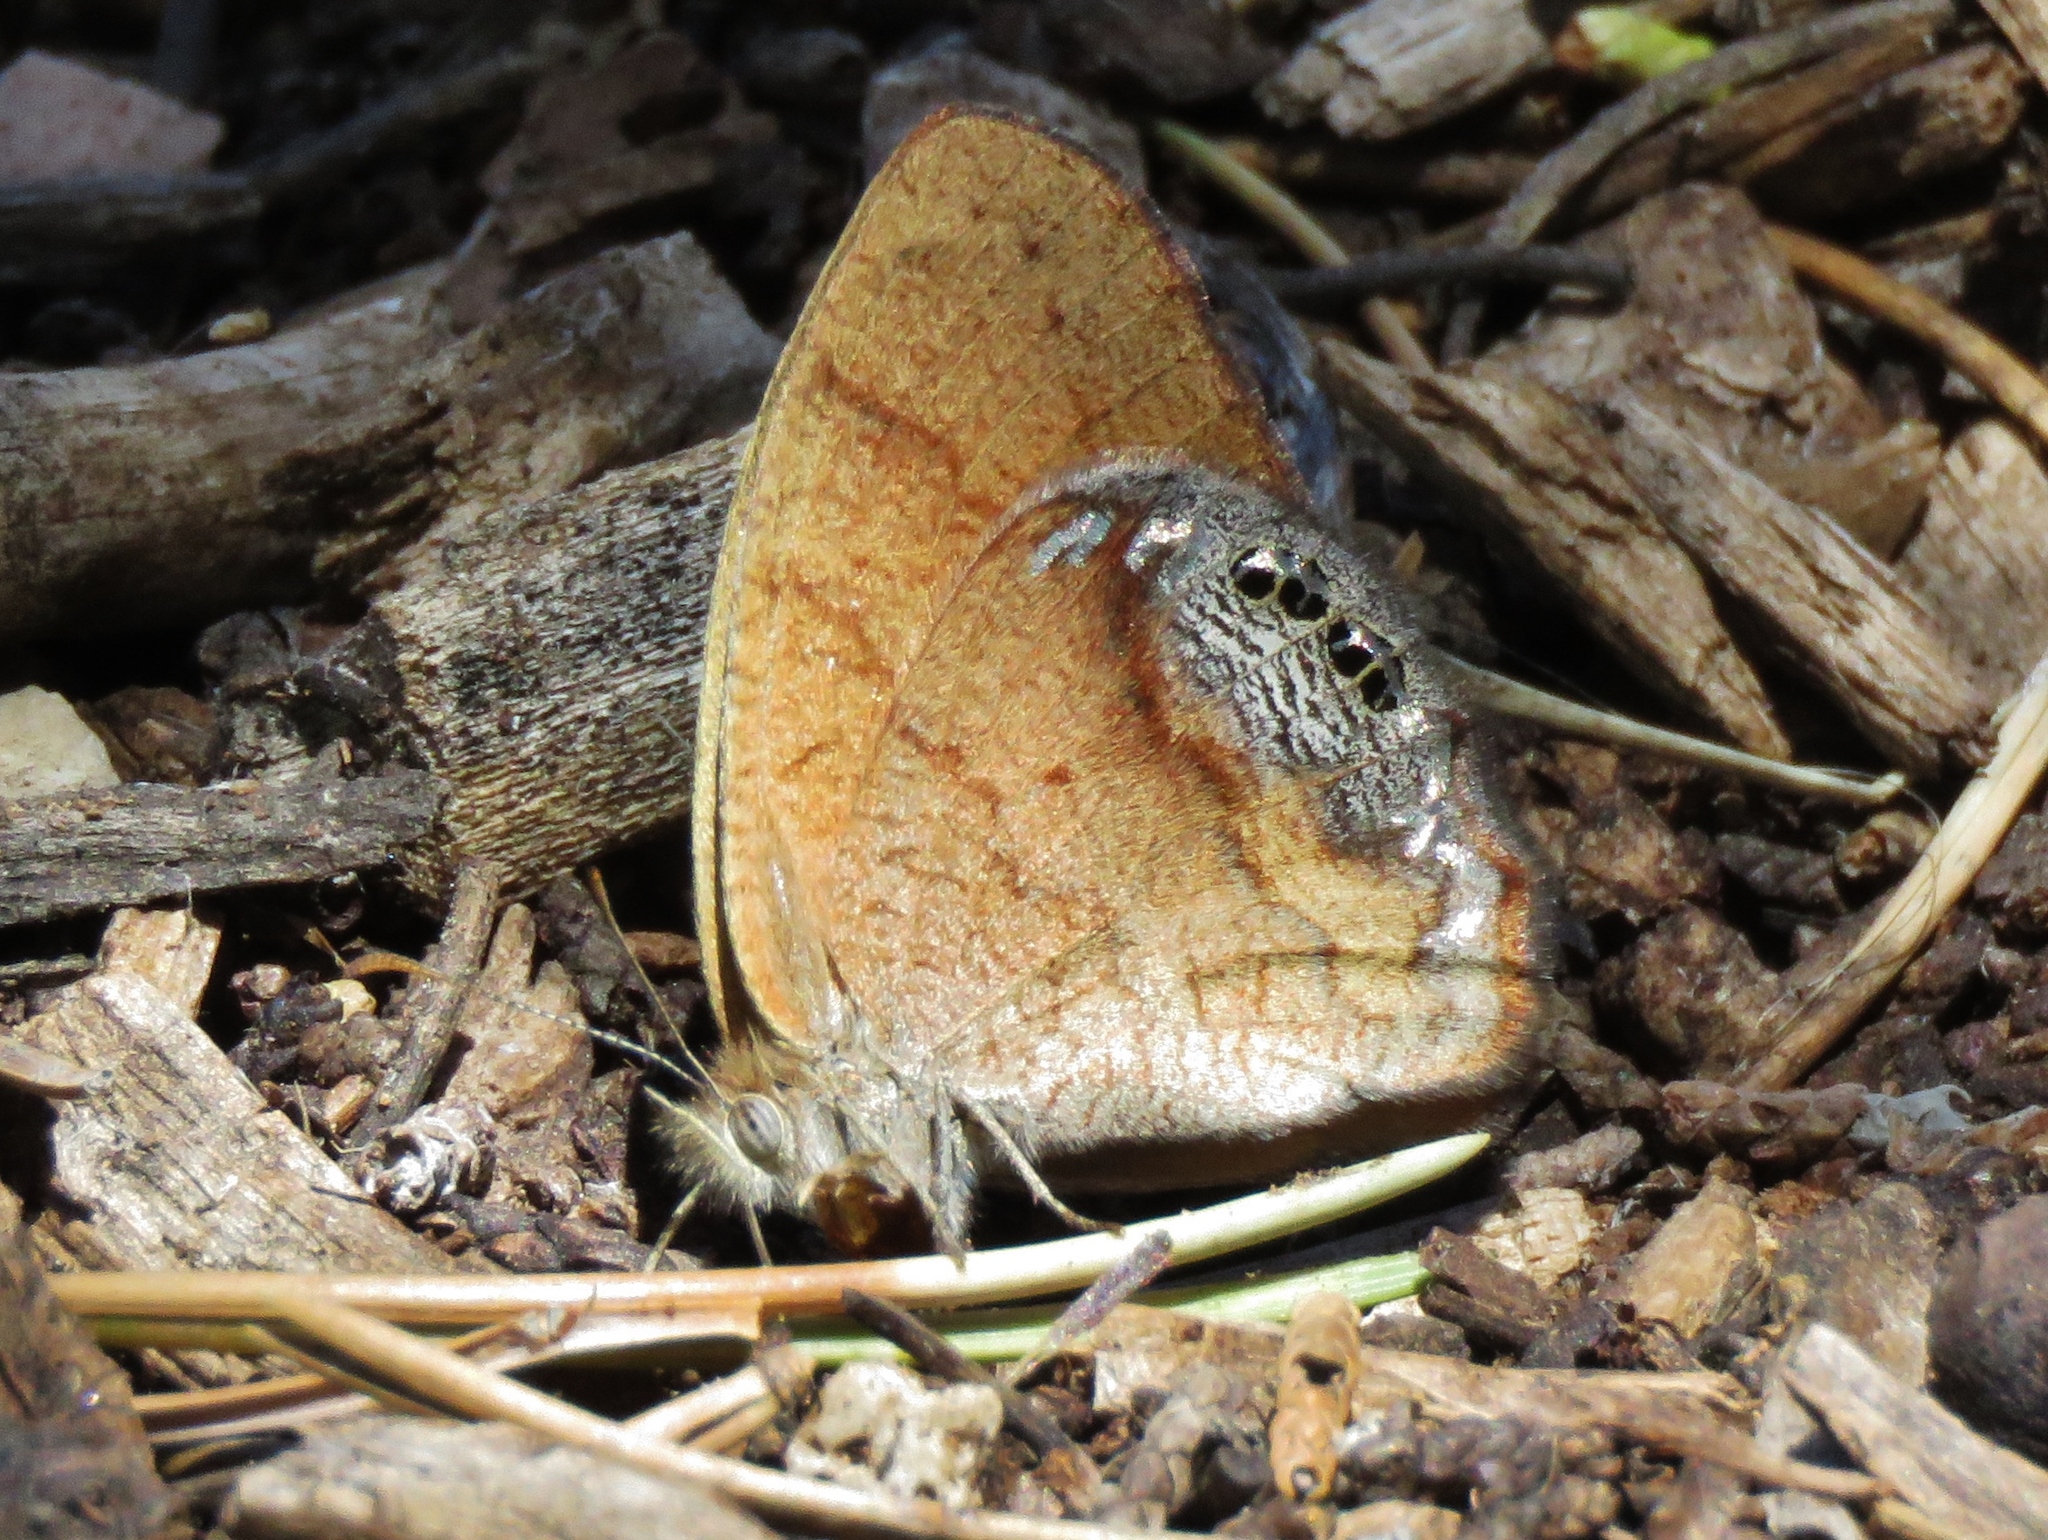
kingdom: Animalia
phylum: Arthropoda
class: Insecta
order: Lepidoptera
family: Nymphalidae
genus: Euptychia
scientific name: Euptychia Cyllopsis pertepida
